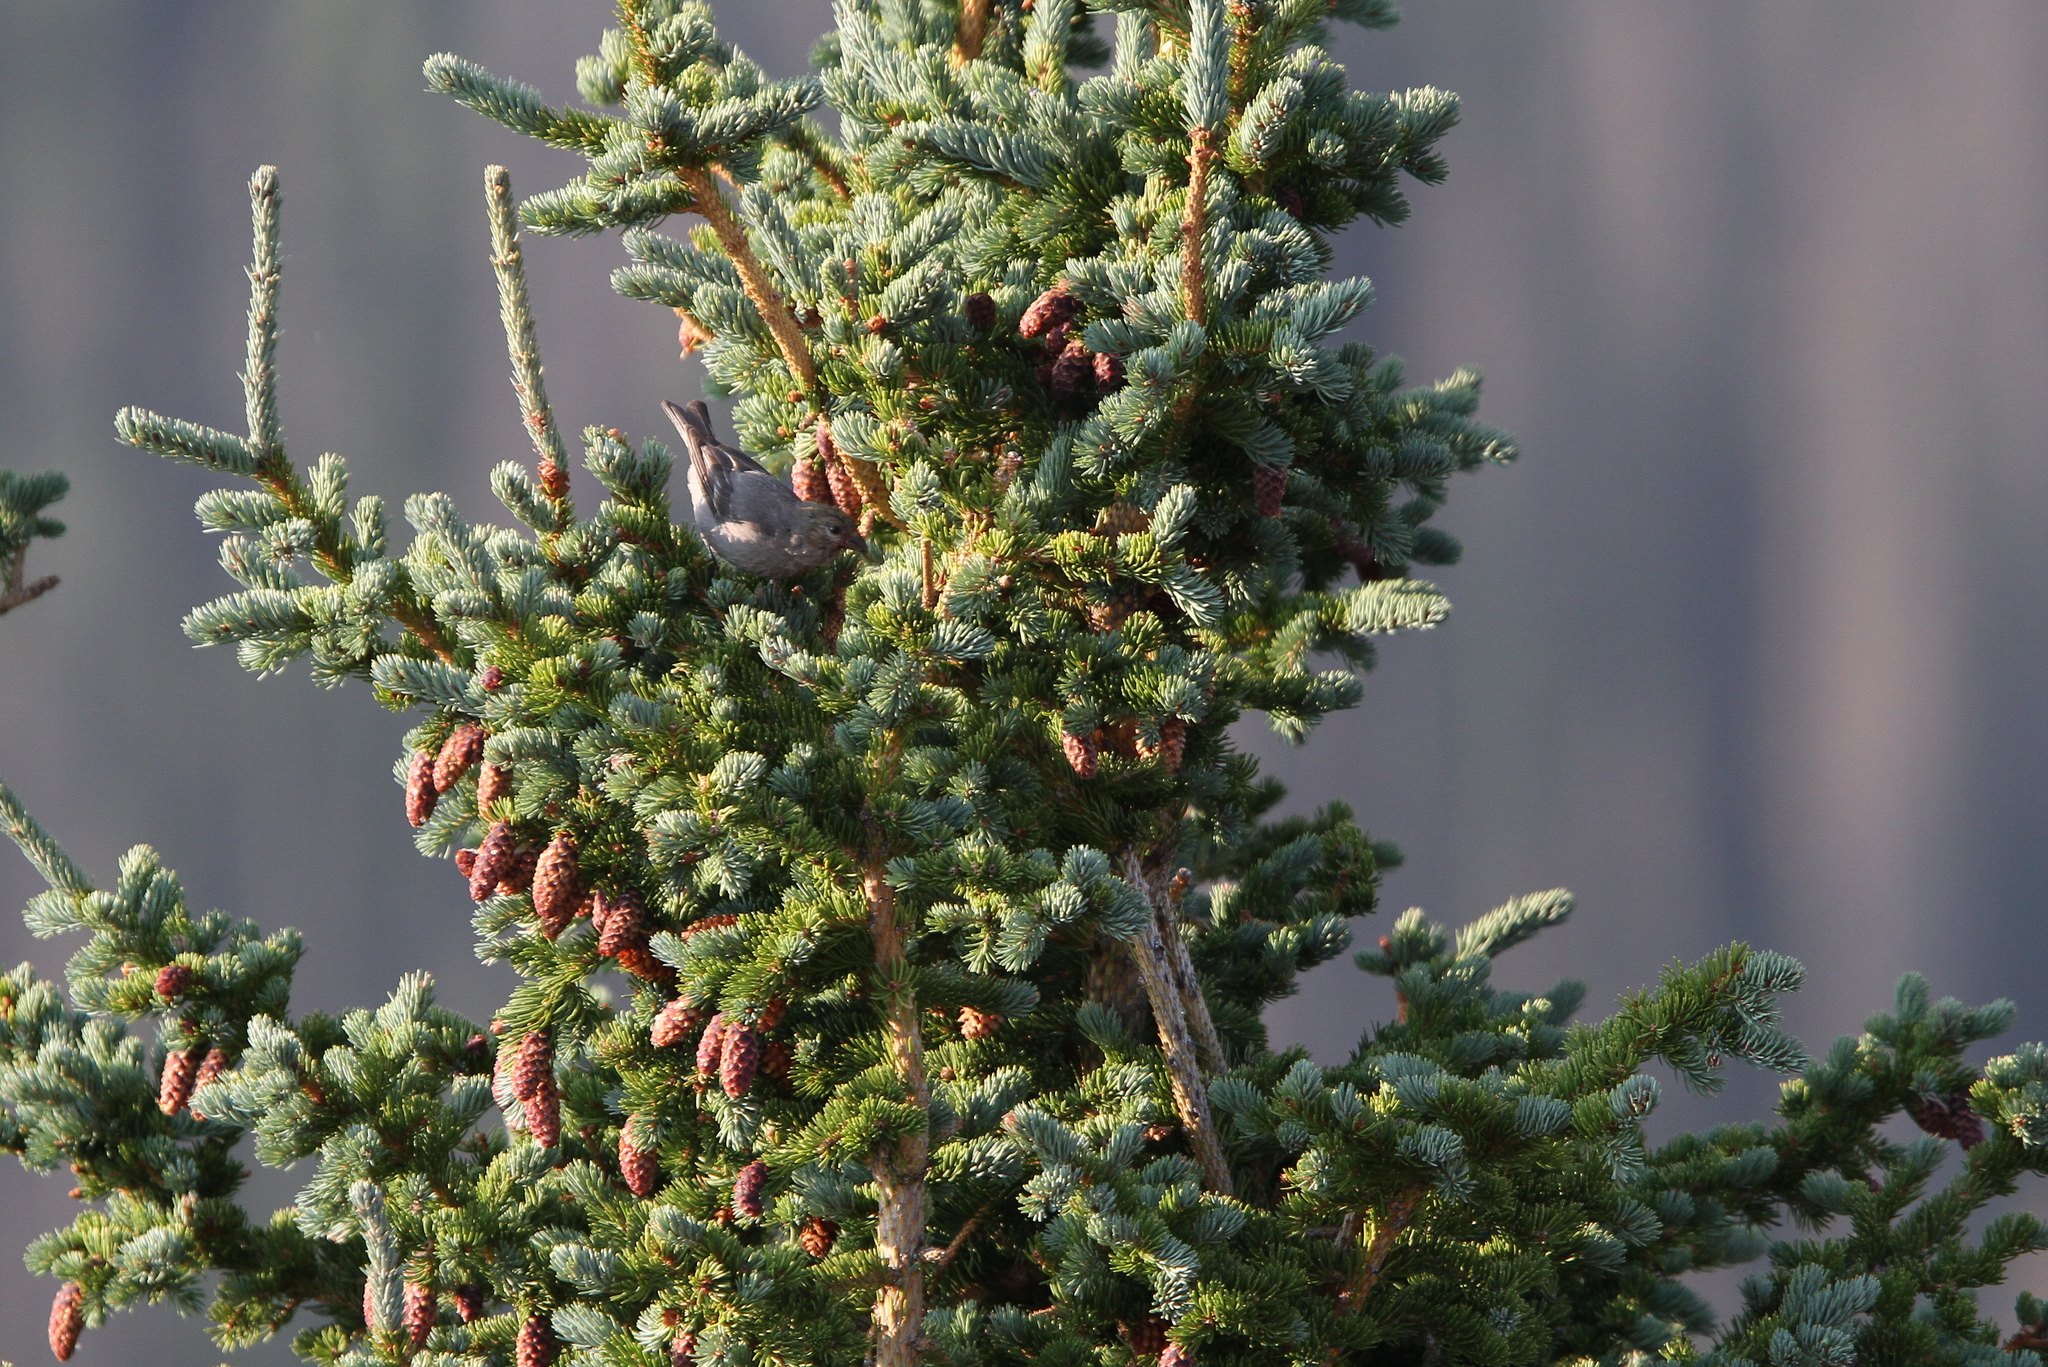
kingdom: Animalia
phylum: Chordata
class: Aves
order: Passeriformes
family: Fringillidae
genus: Pinicola
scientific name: Pinicola enucleator
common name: Pine grosbeak
